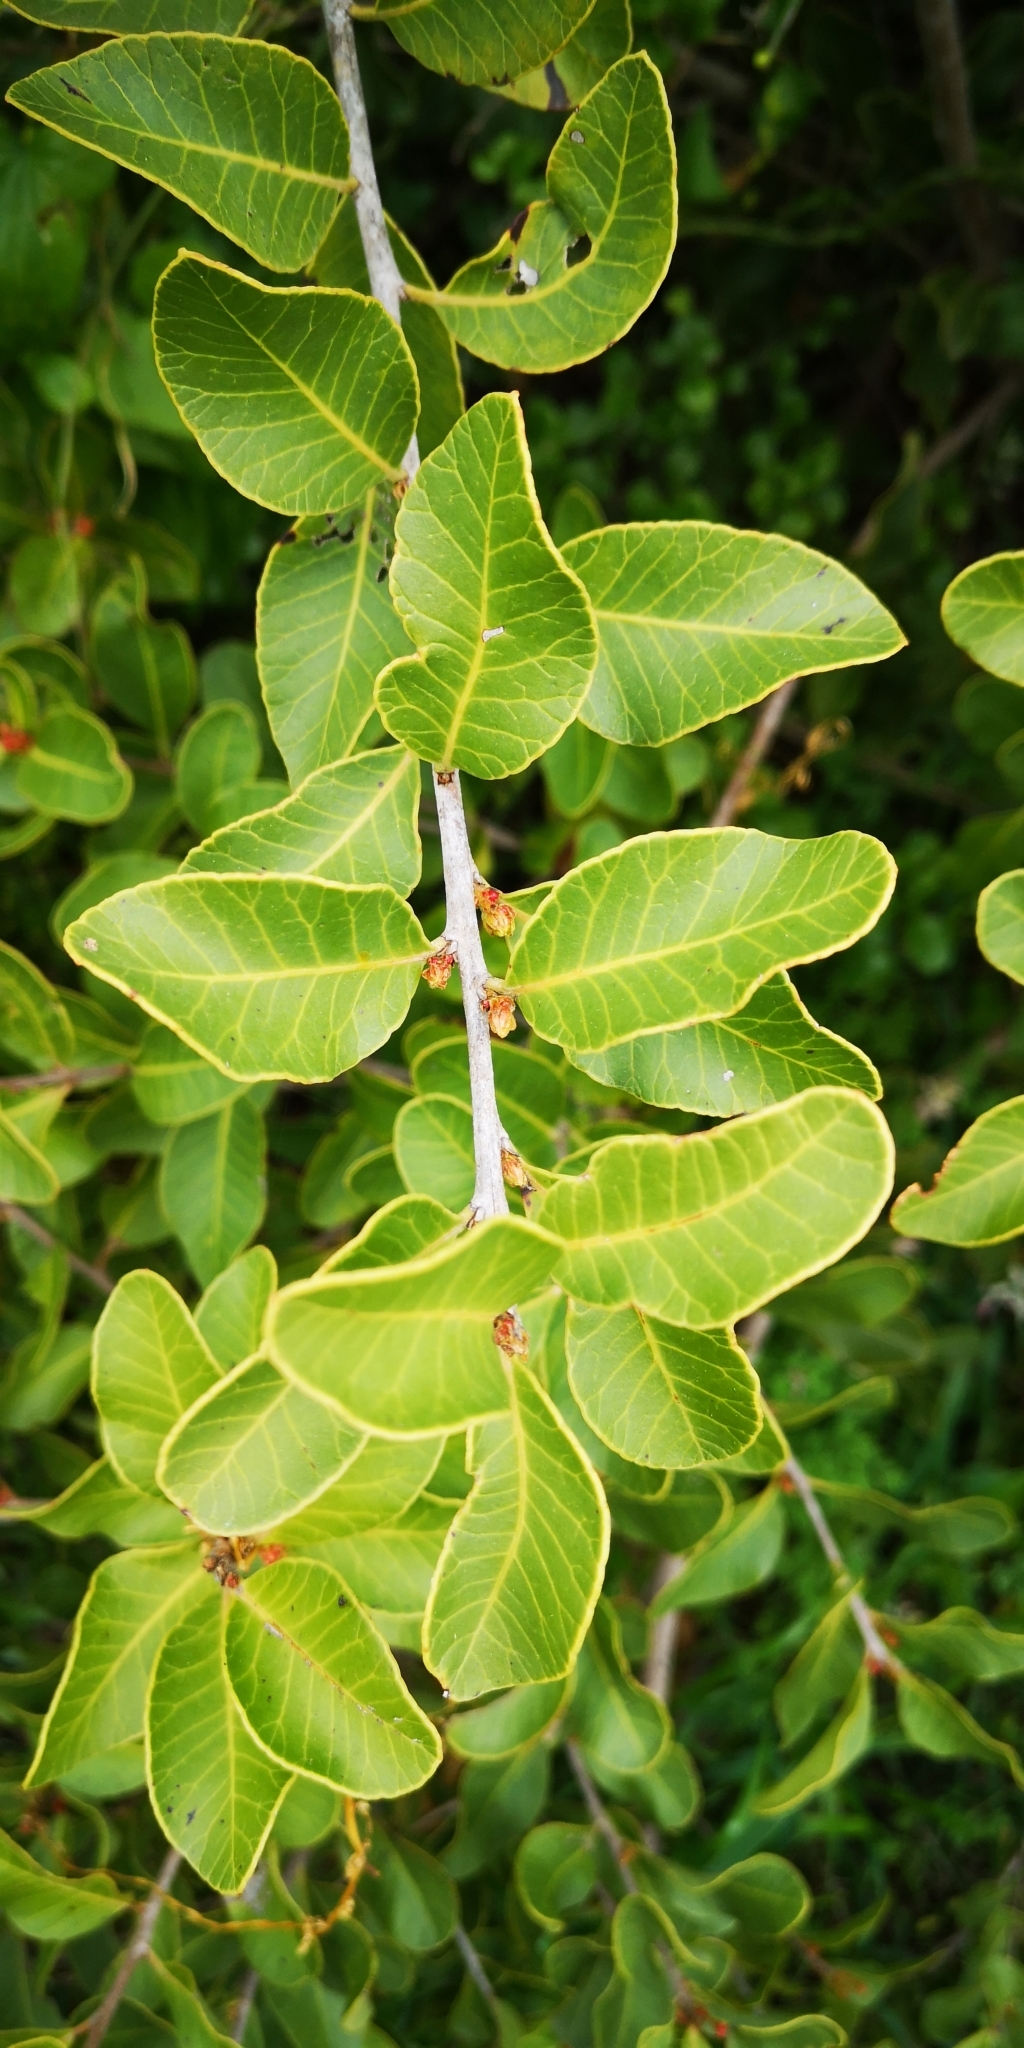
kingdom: Plantae
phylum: Tracheophyta
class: Magnoliopsida
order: Sapindales
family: Anacardiaceae
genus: Lithraea
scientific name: Lithraea caustica
